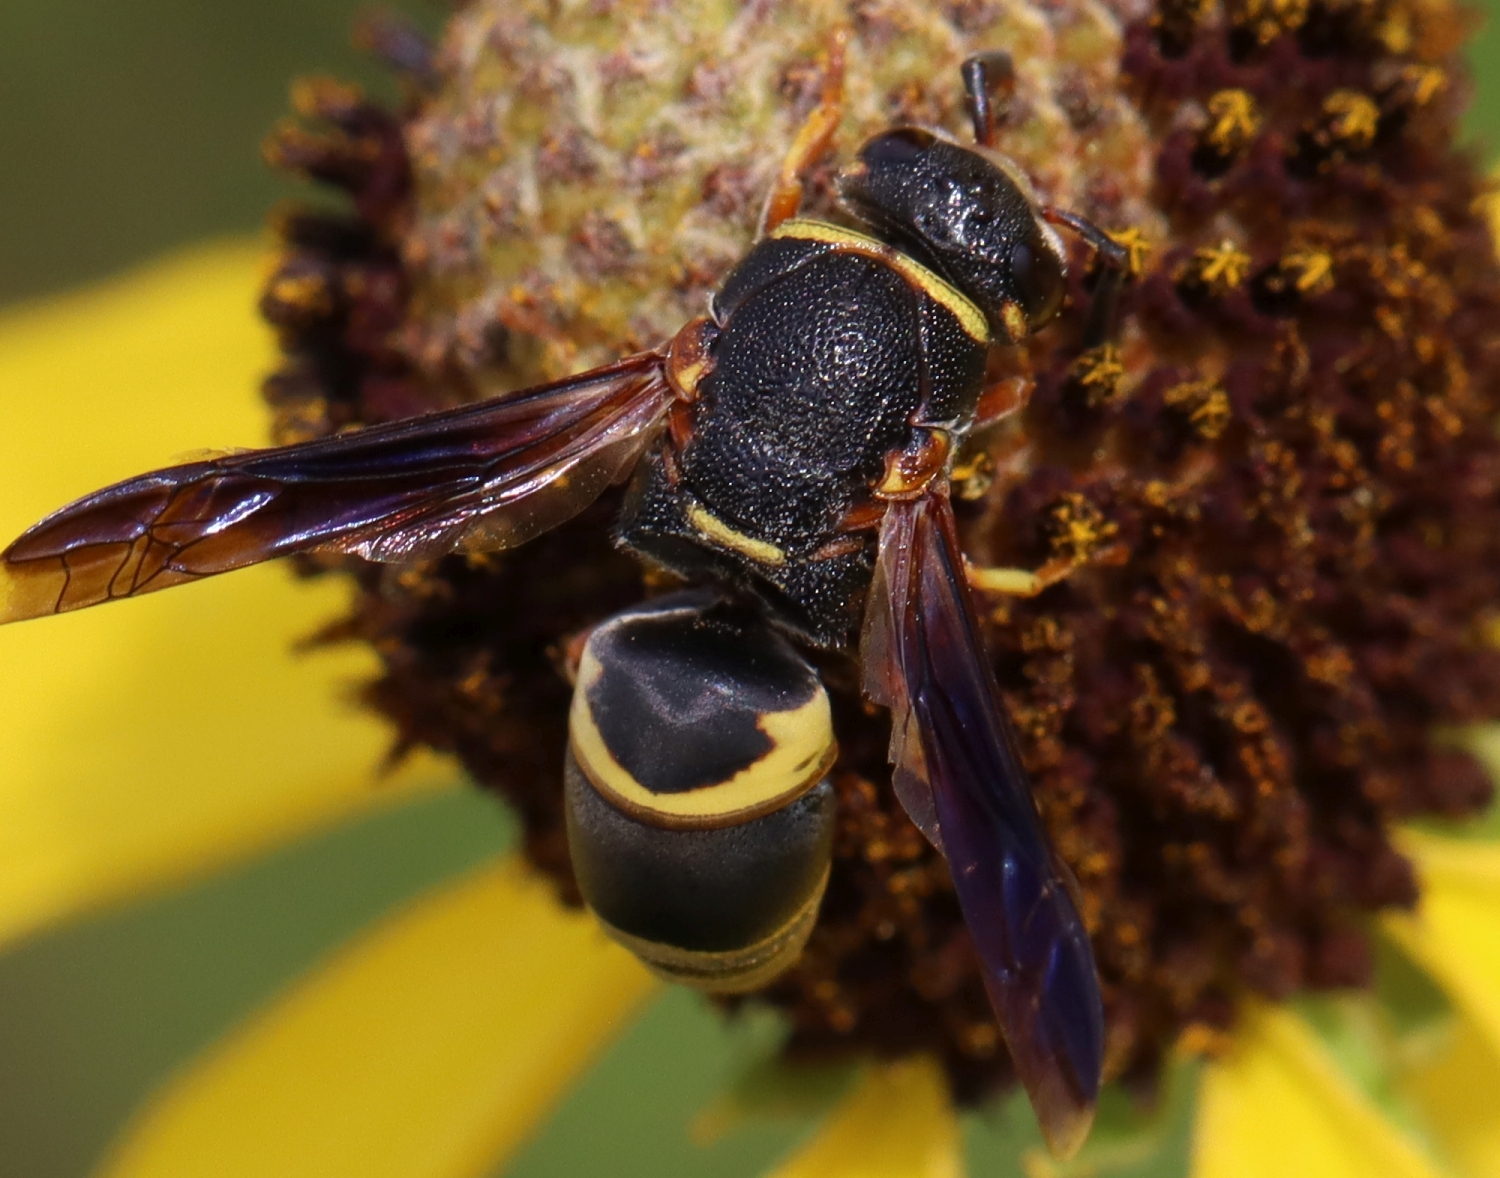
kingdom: Animalia
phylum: Arthropoda
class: Insecta
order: Hymenoptera
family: Eumenidae
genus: Euodynerus
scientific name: Euodynerus hidalgo
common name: Wasp
